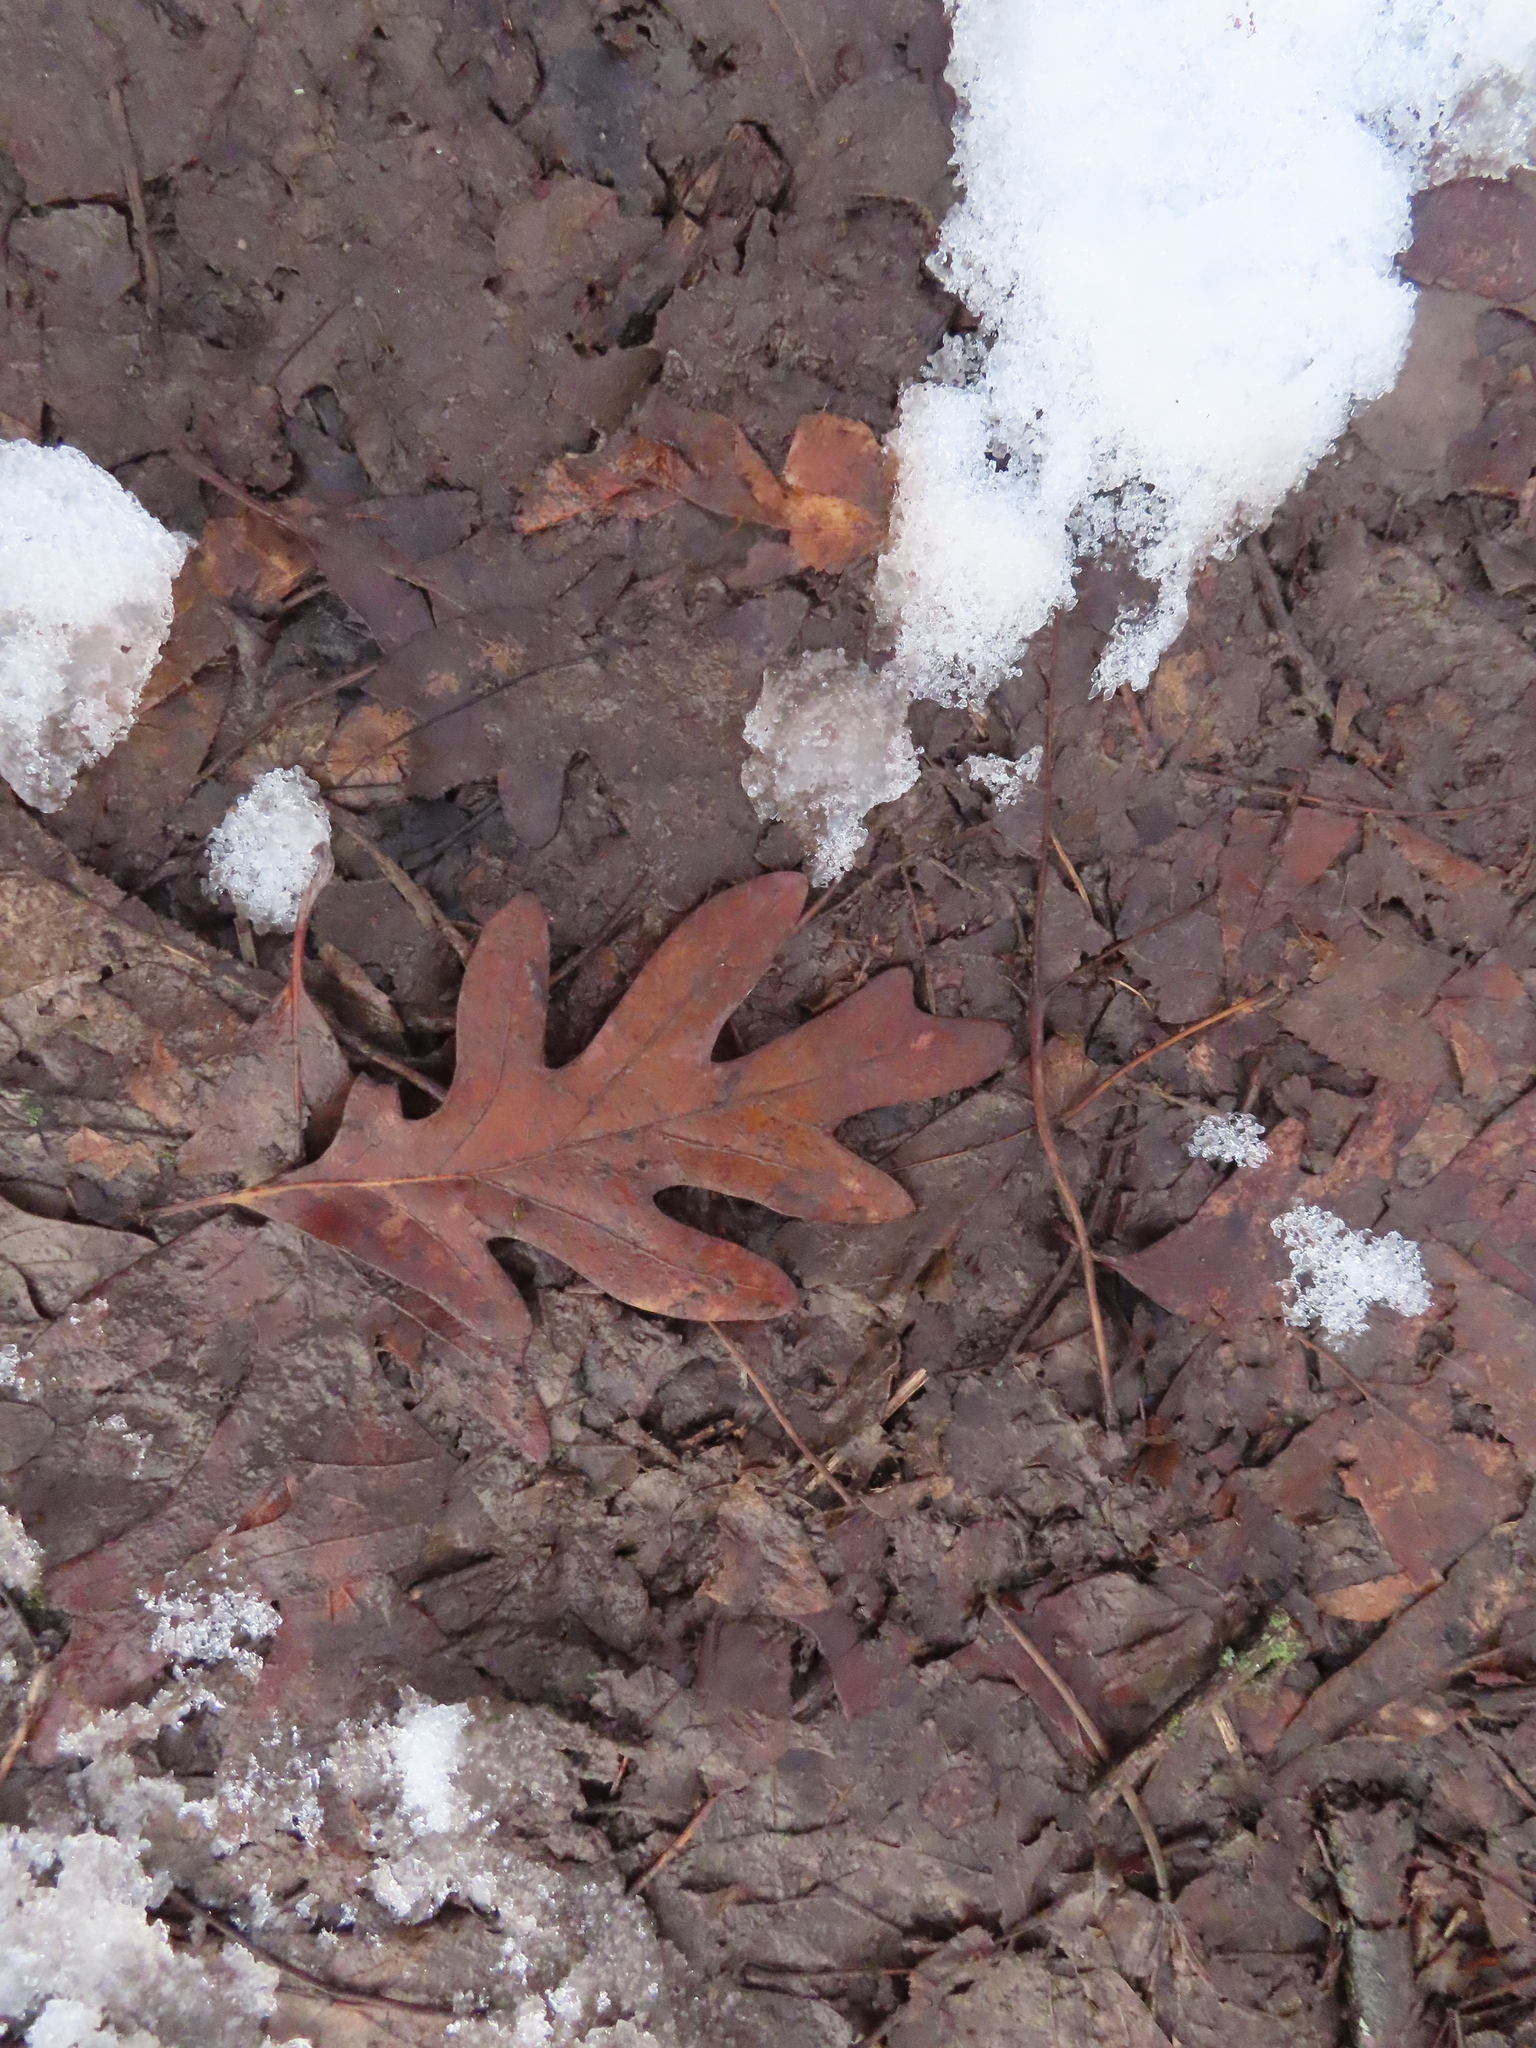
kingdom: Plantae
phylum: Tracheophyta
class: Magnoliopsida
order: Fagales
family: Fagaceae
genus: Quercus
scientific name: Quercus alba
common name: White oak
